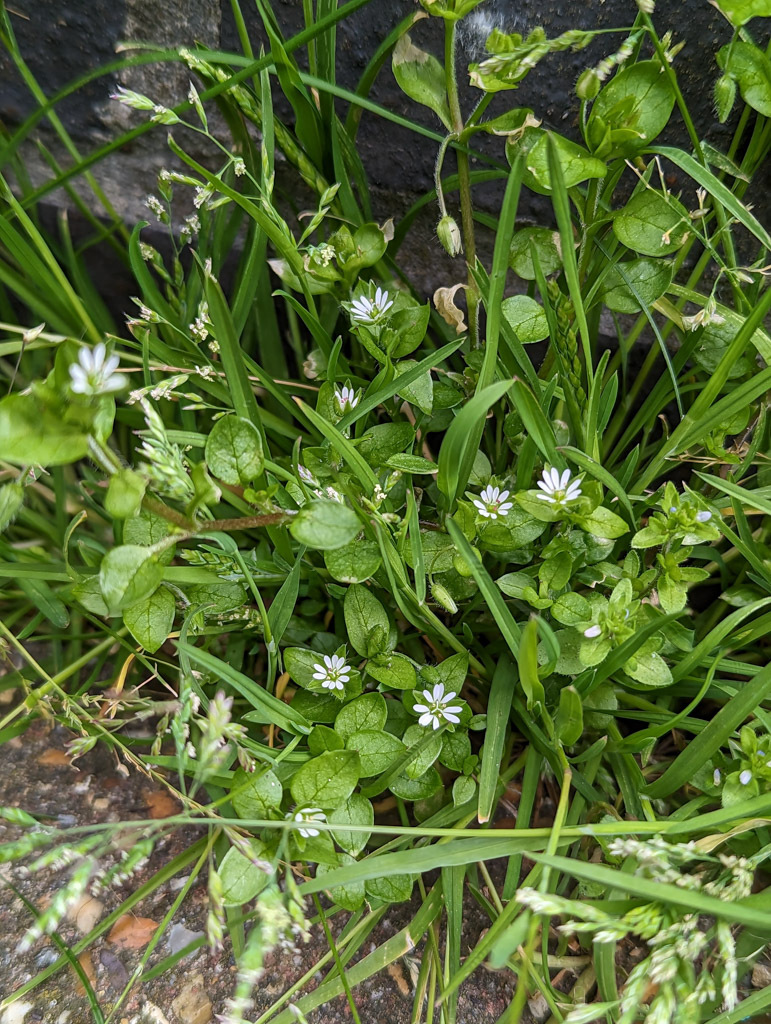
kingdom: Plantae
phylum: Tracheophyta
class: Magnoliopsida
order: Caryophyllales
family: Caryophyllaceae
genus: Stellaria
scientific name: Stellaria media
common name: Common chickweed
